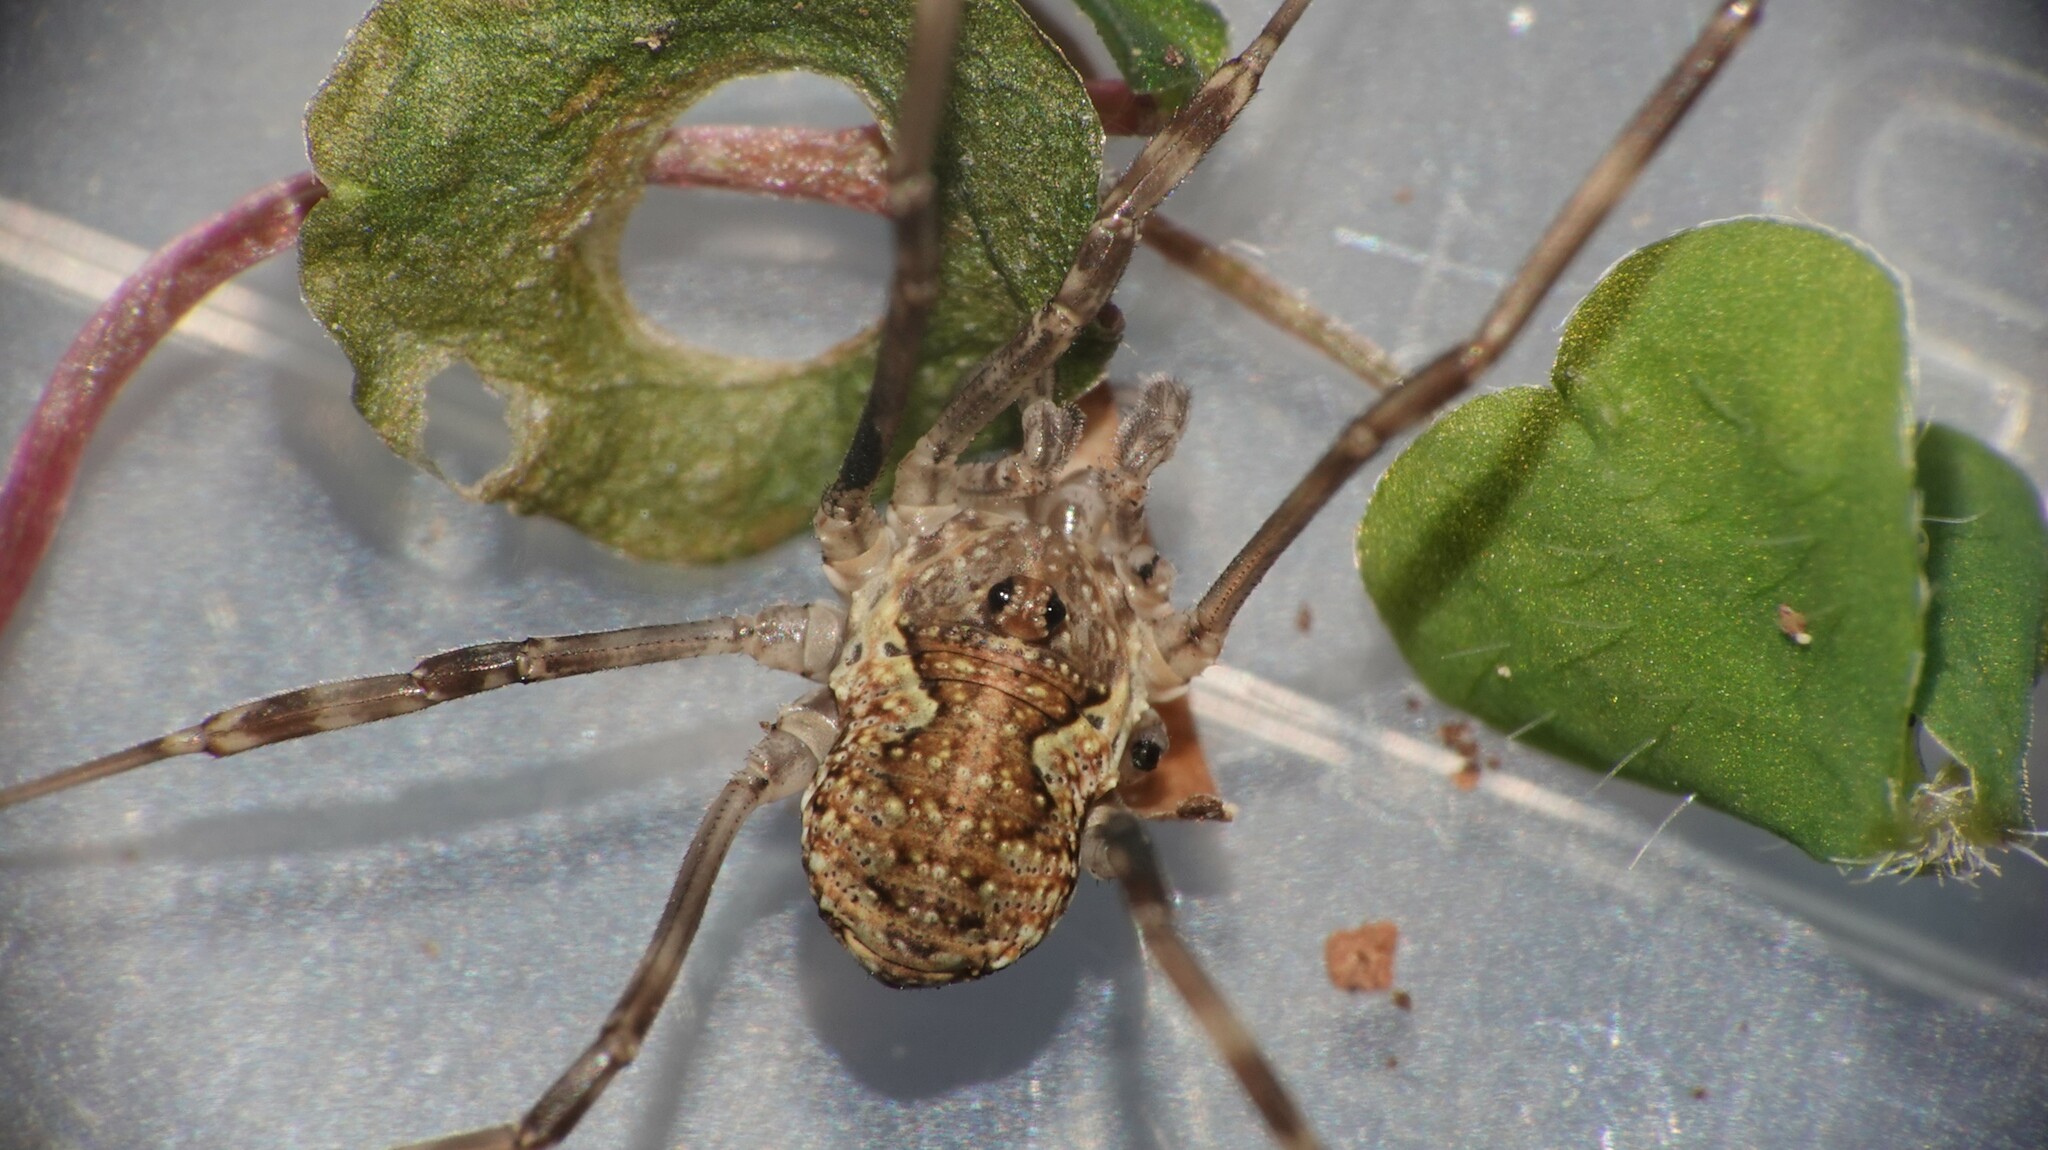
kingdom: Animalia
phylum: Arthropoda
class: Arachnida
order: Opiliones
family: Phalangiidae
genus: Mitopus
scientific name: Mitopus morio
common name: Saddleback harvestman
